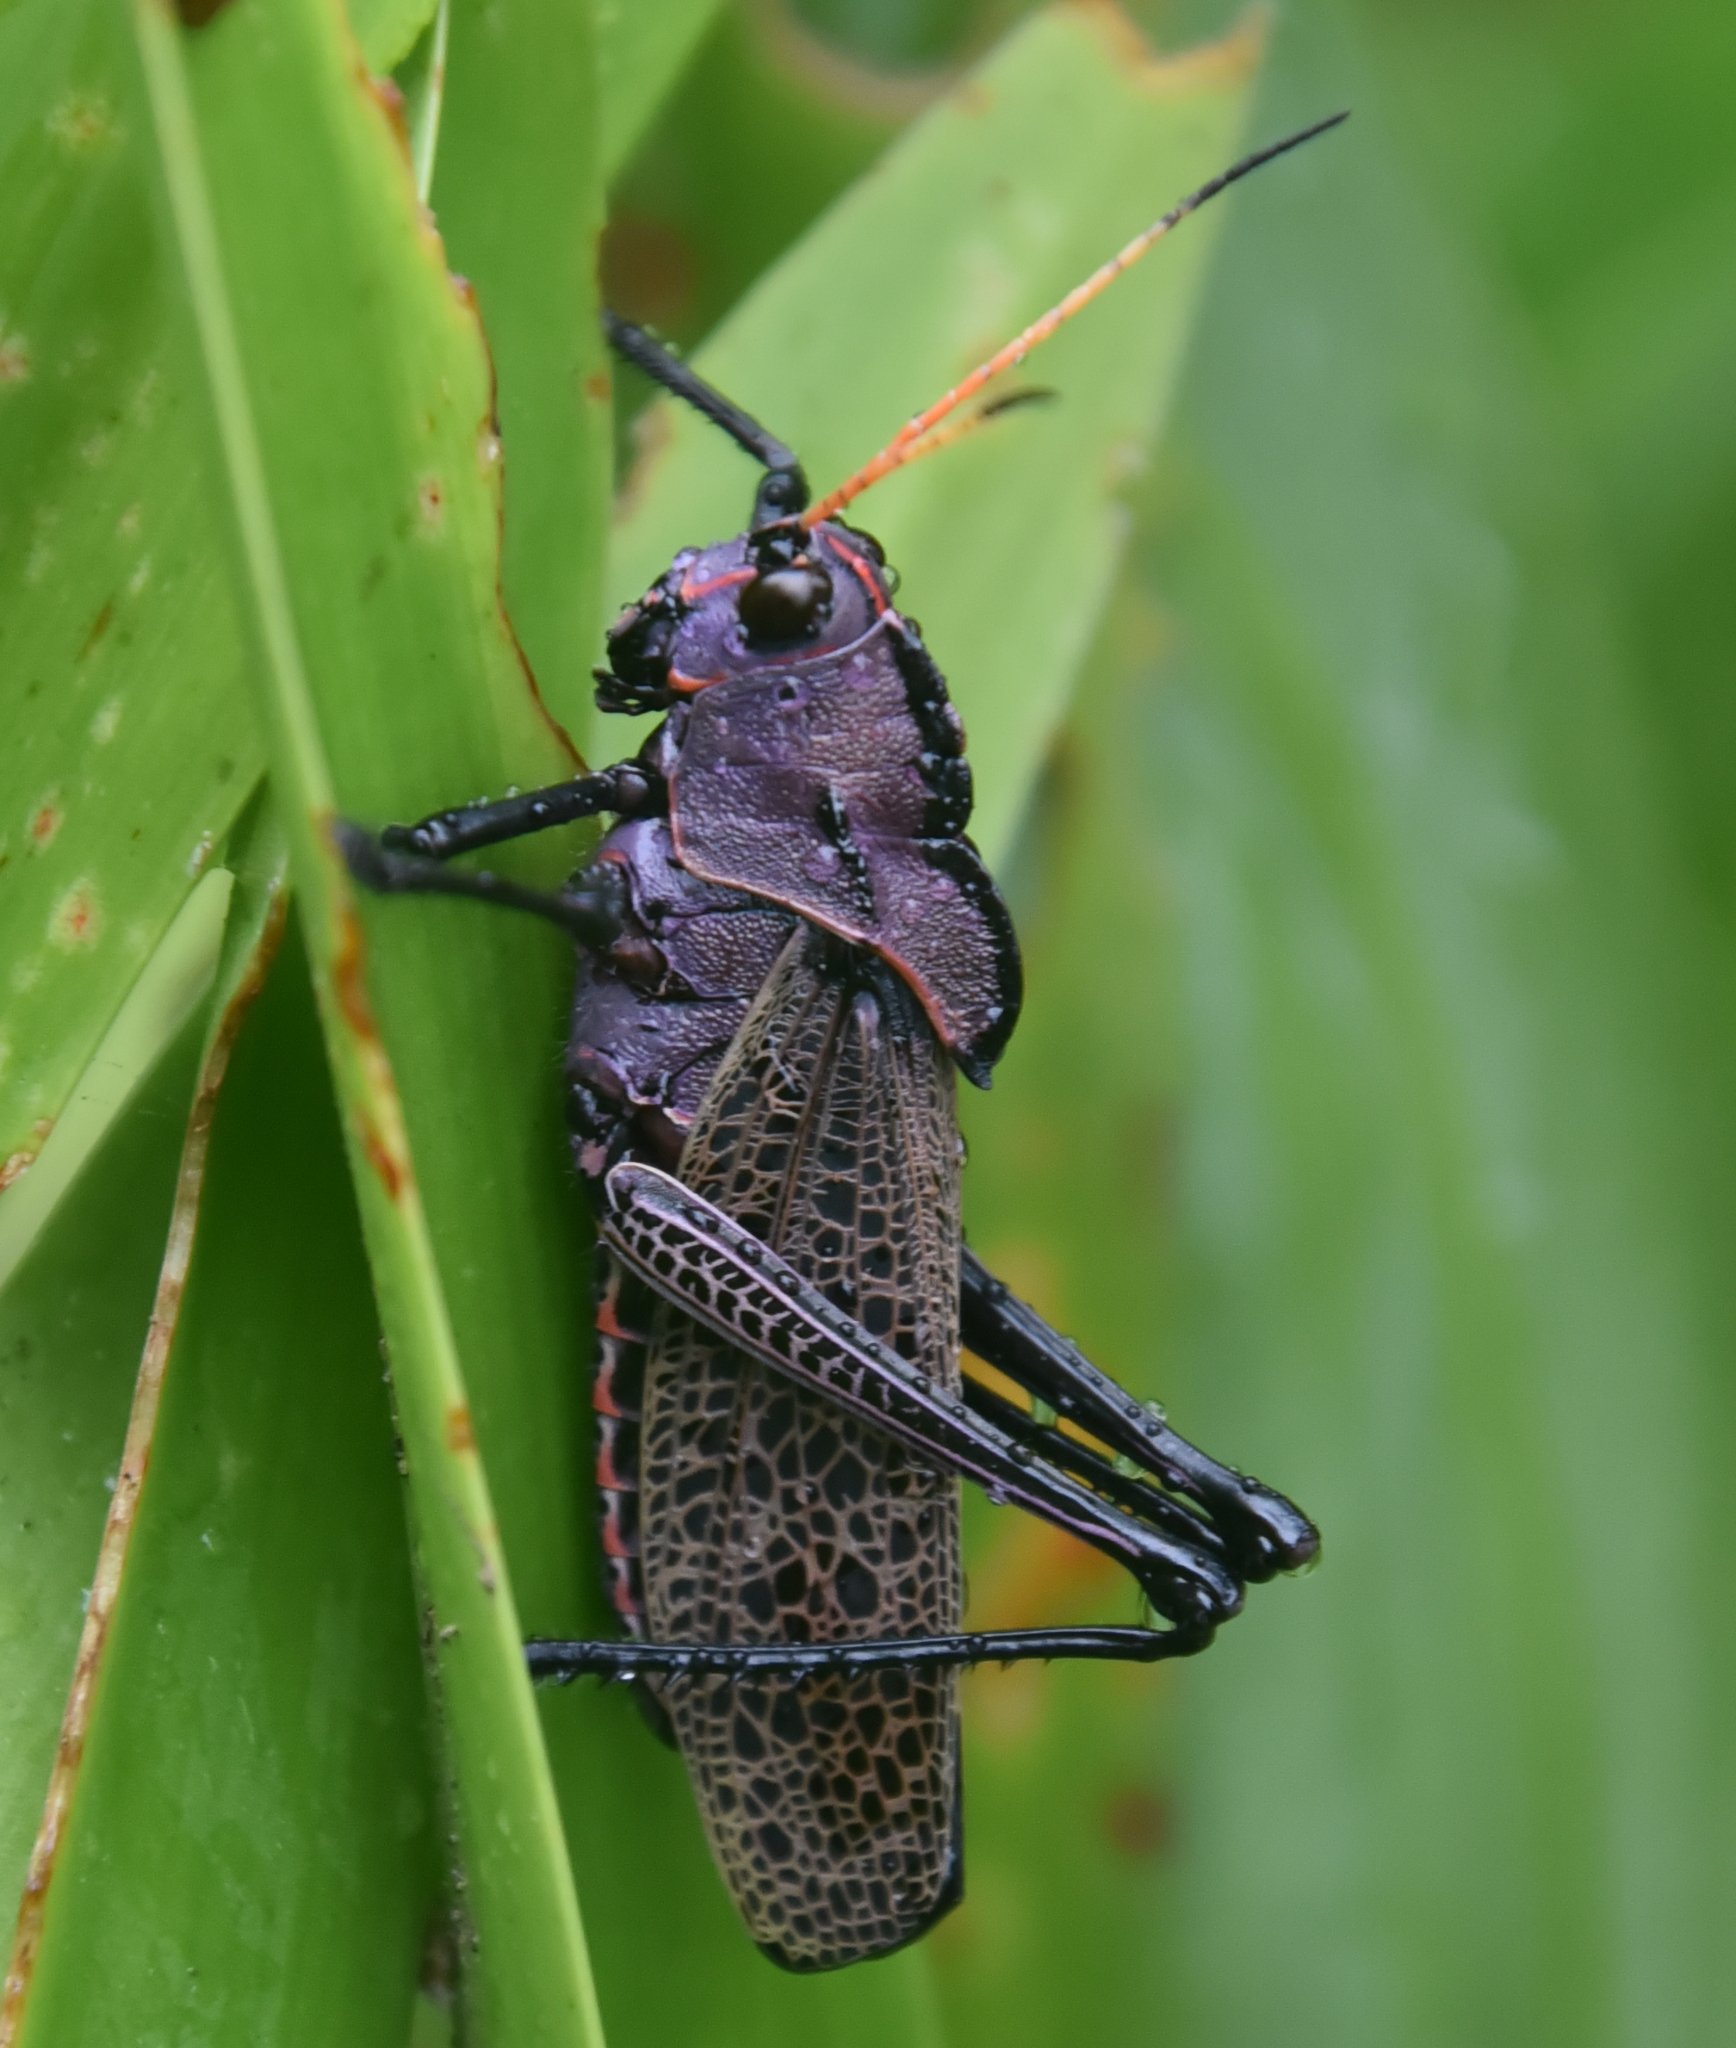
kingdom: Animalia
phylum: Arthropoda
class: Insecta
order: Orthoptera
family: Romaleidae
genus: Romalea
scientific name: Romalea
